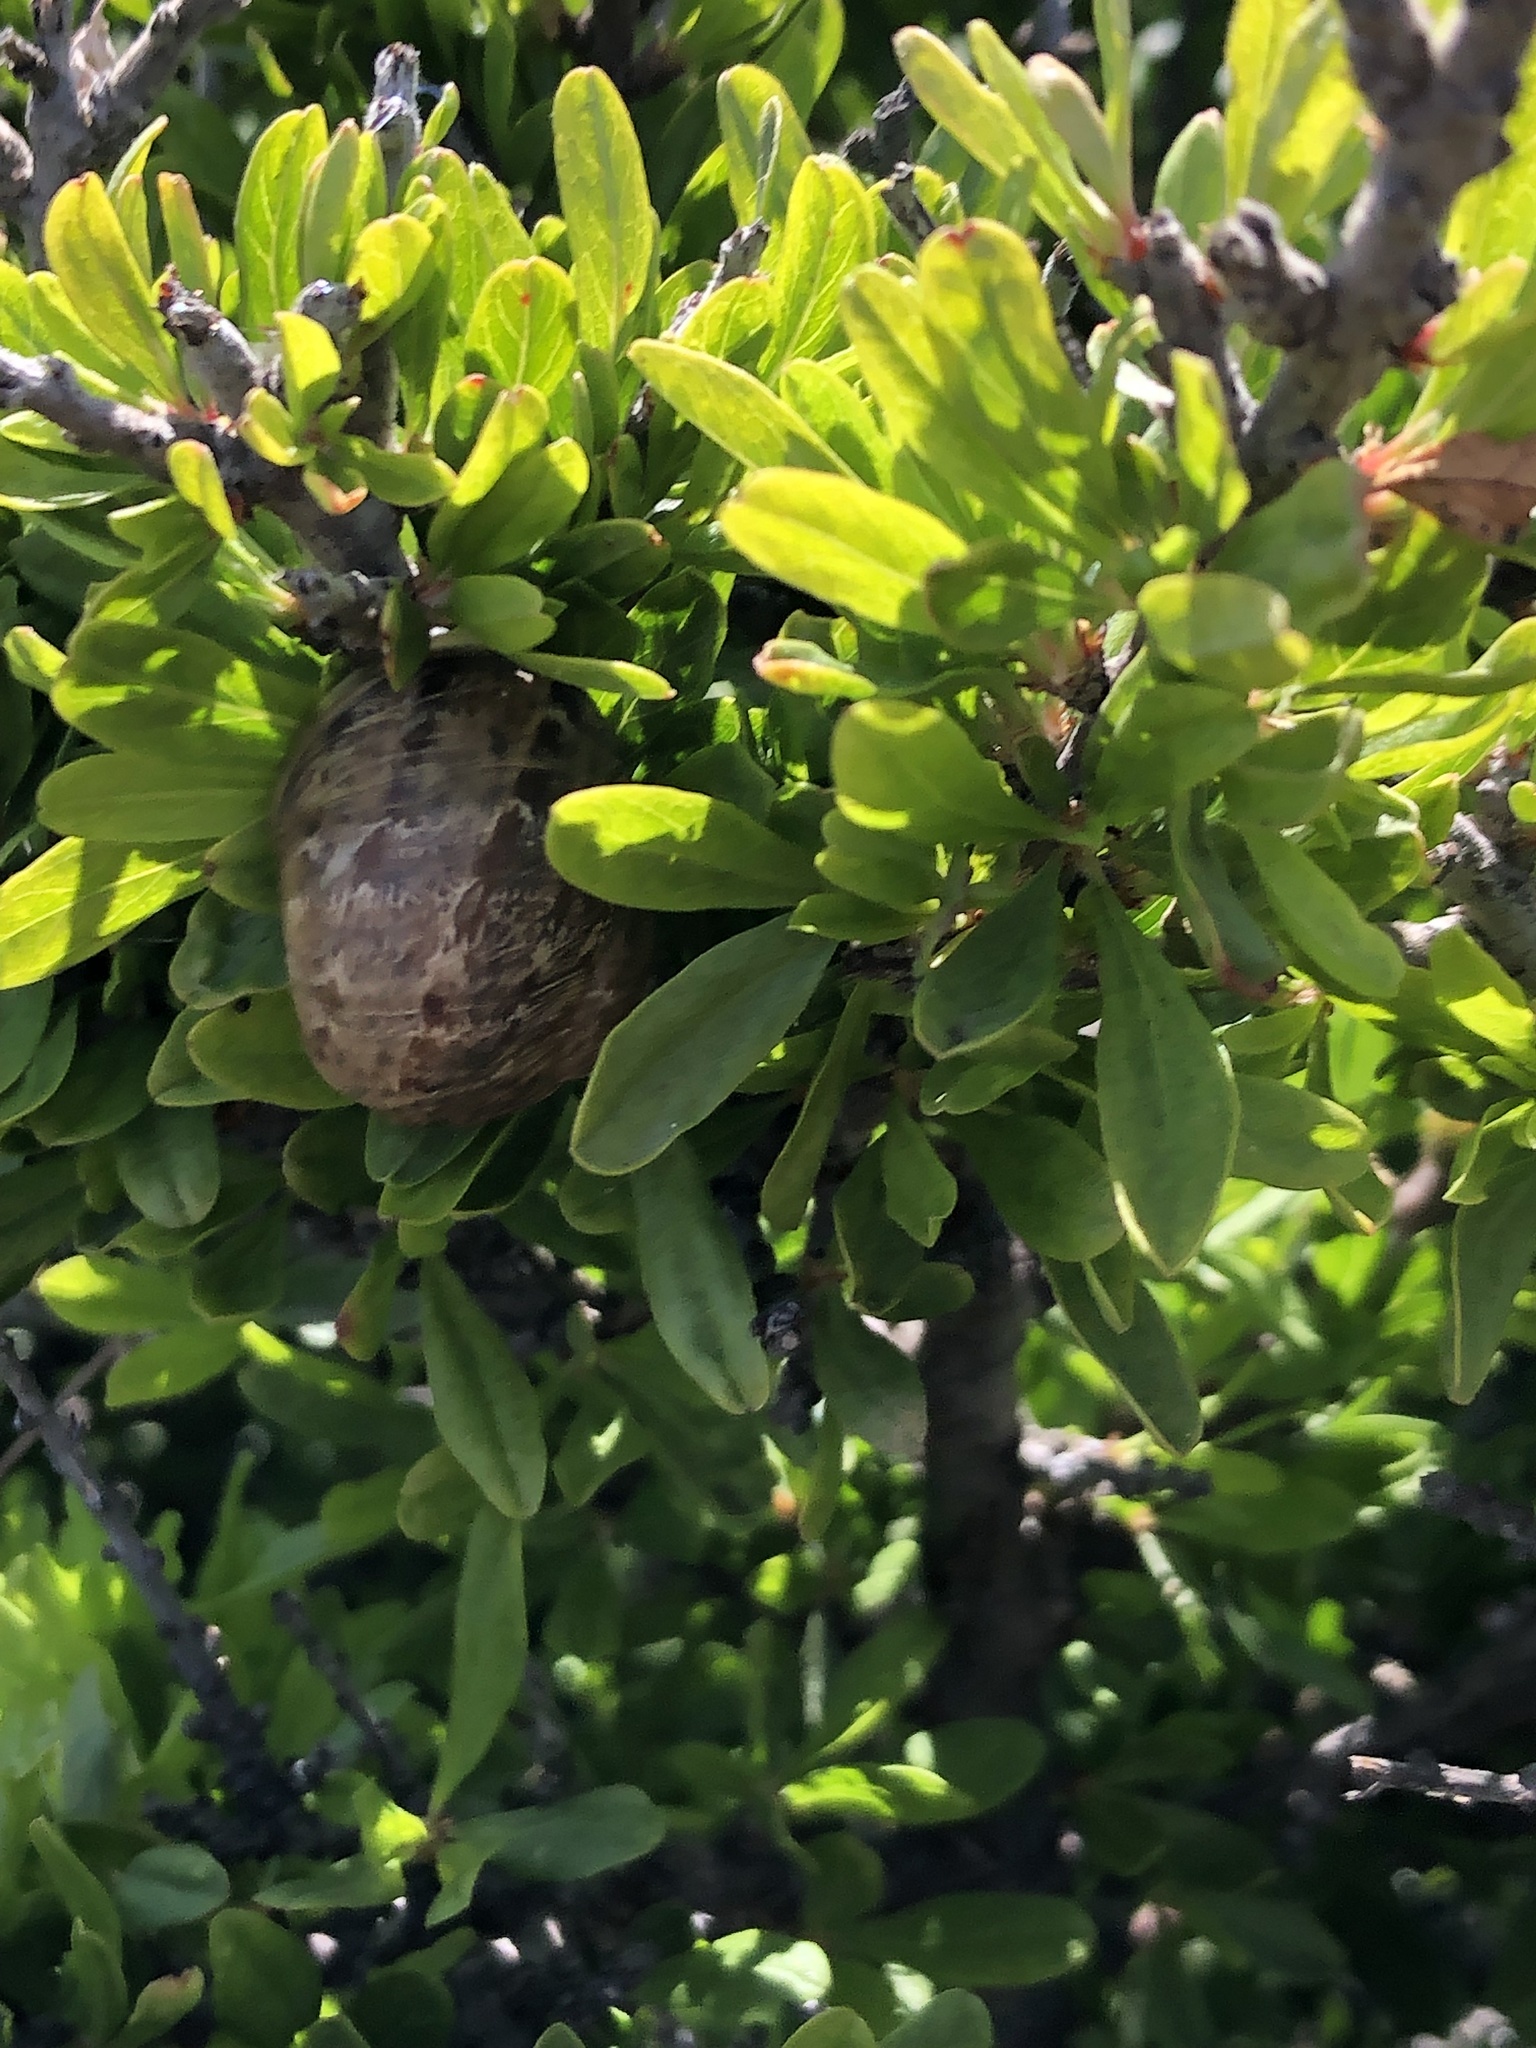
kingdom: Animalia
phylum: Mollusca
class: Gastropoda
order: Stylommatophora
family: Helicidae
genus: Cornu
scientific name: Cornu aspersum
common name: Brown garden snail
